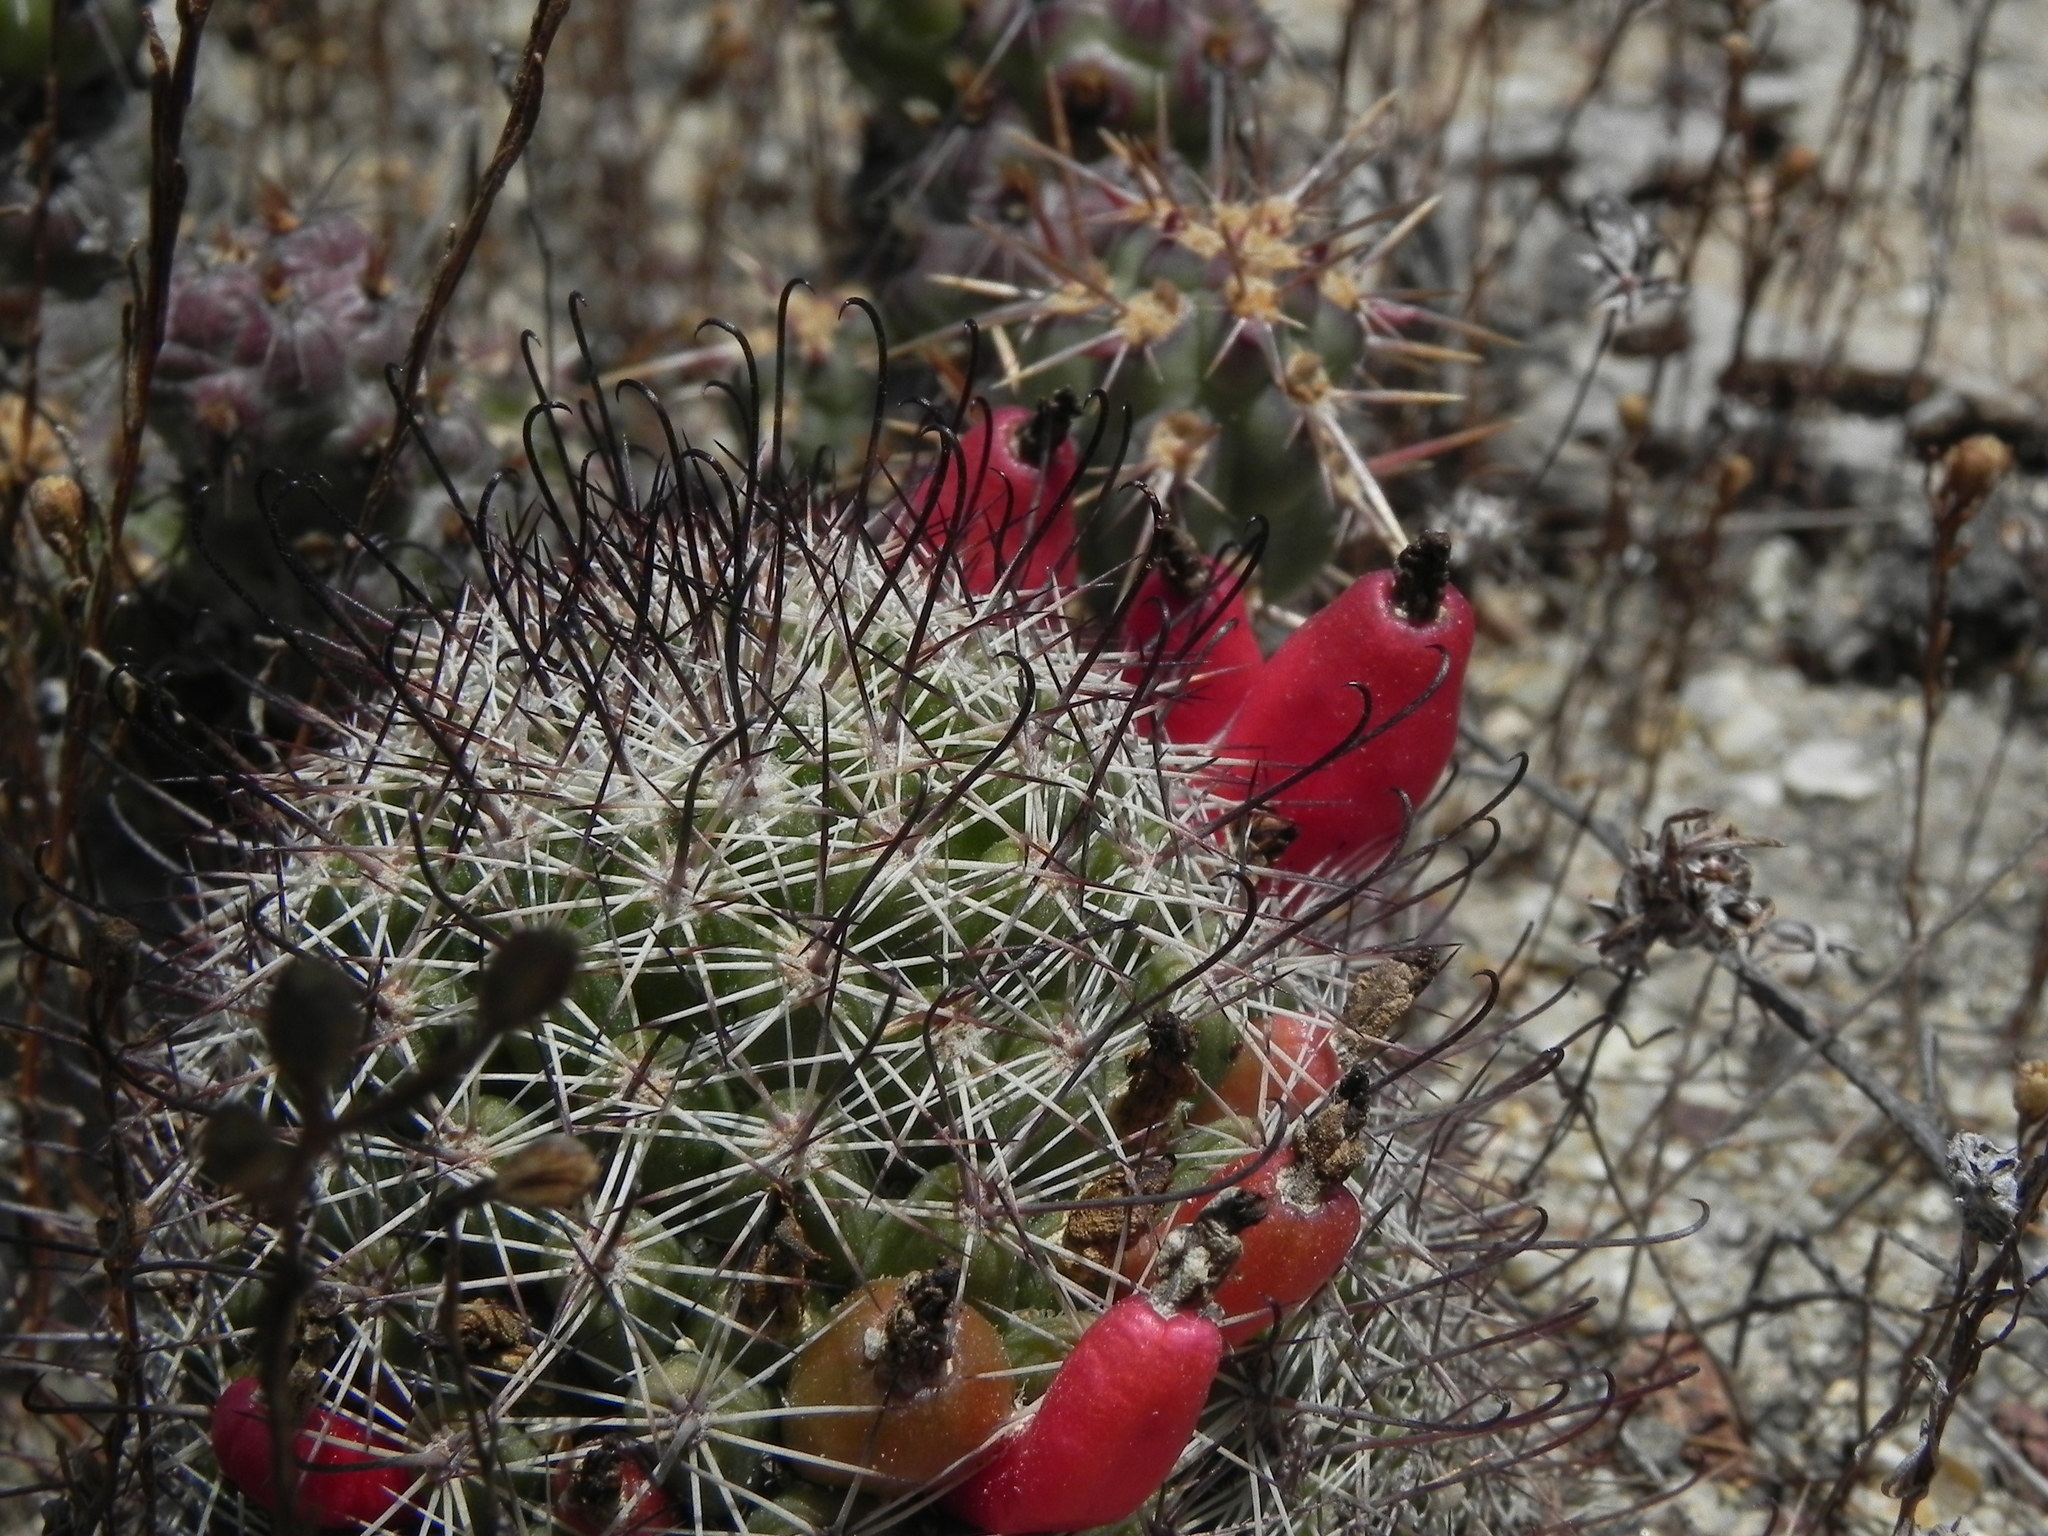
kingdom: Plantae
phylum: Tracheophyta
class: Magnoliopsida
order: Caryophyllales
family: Cactaceae
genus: Cochemiea
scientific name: Cochemiea dioica
